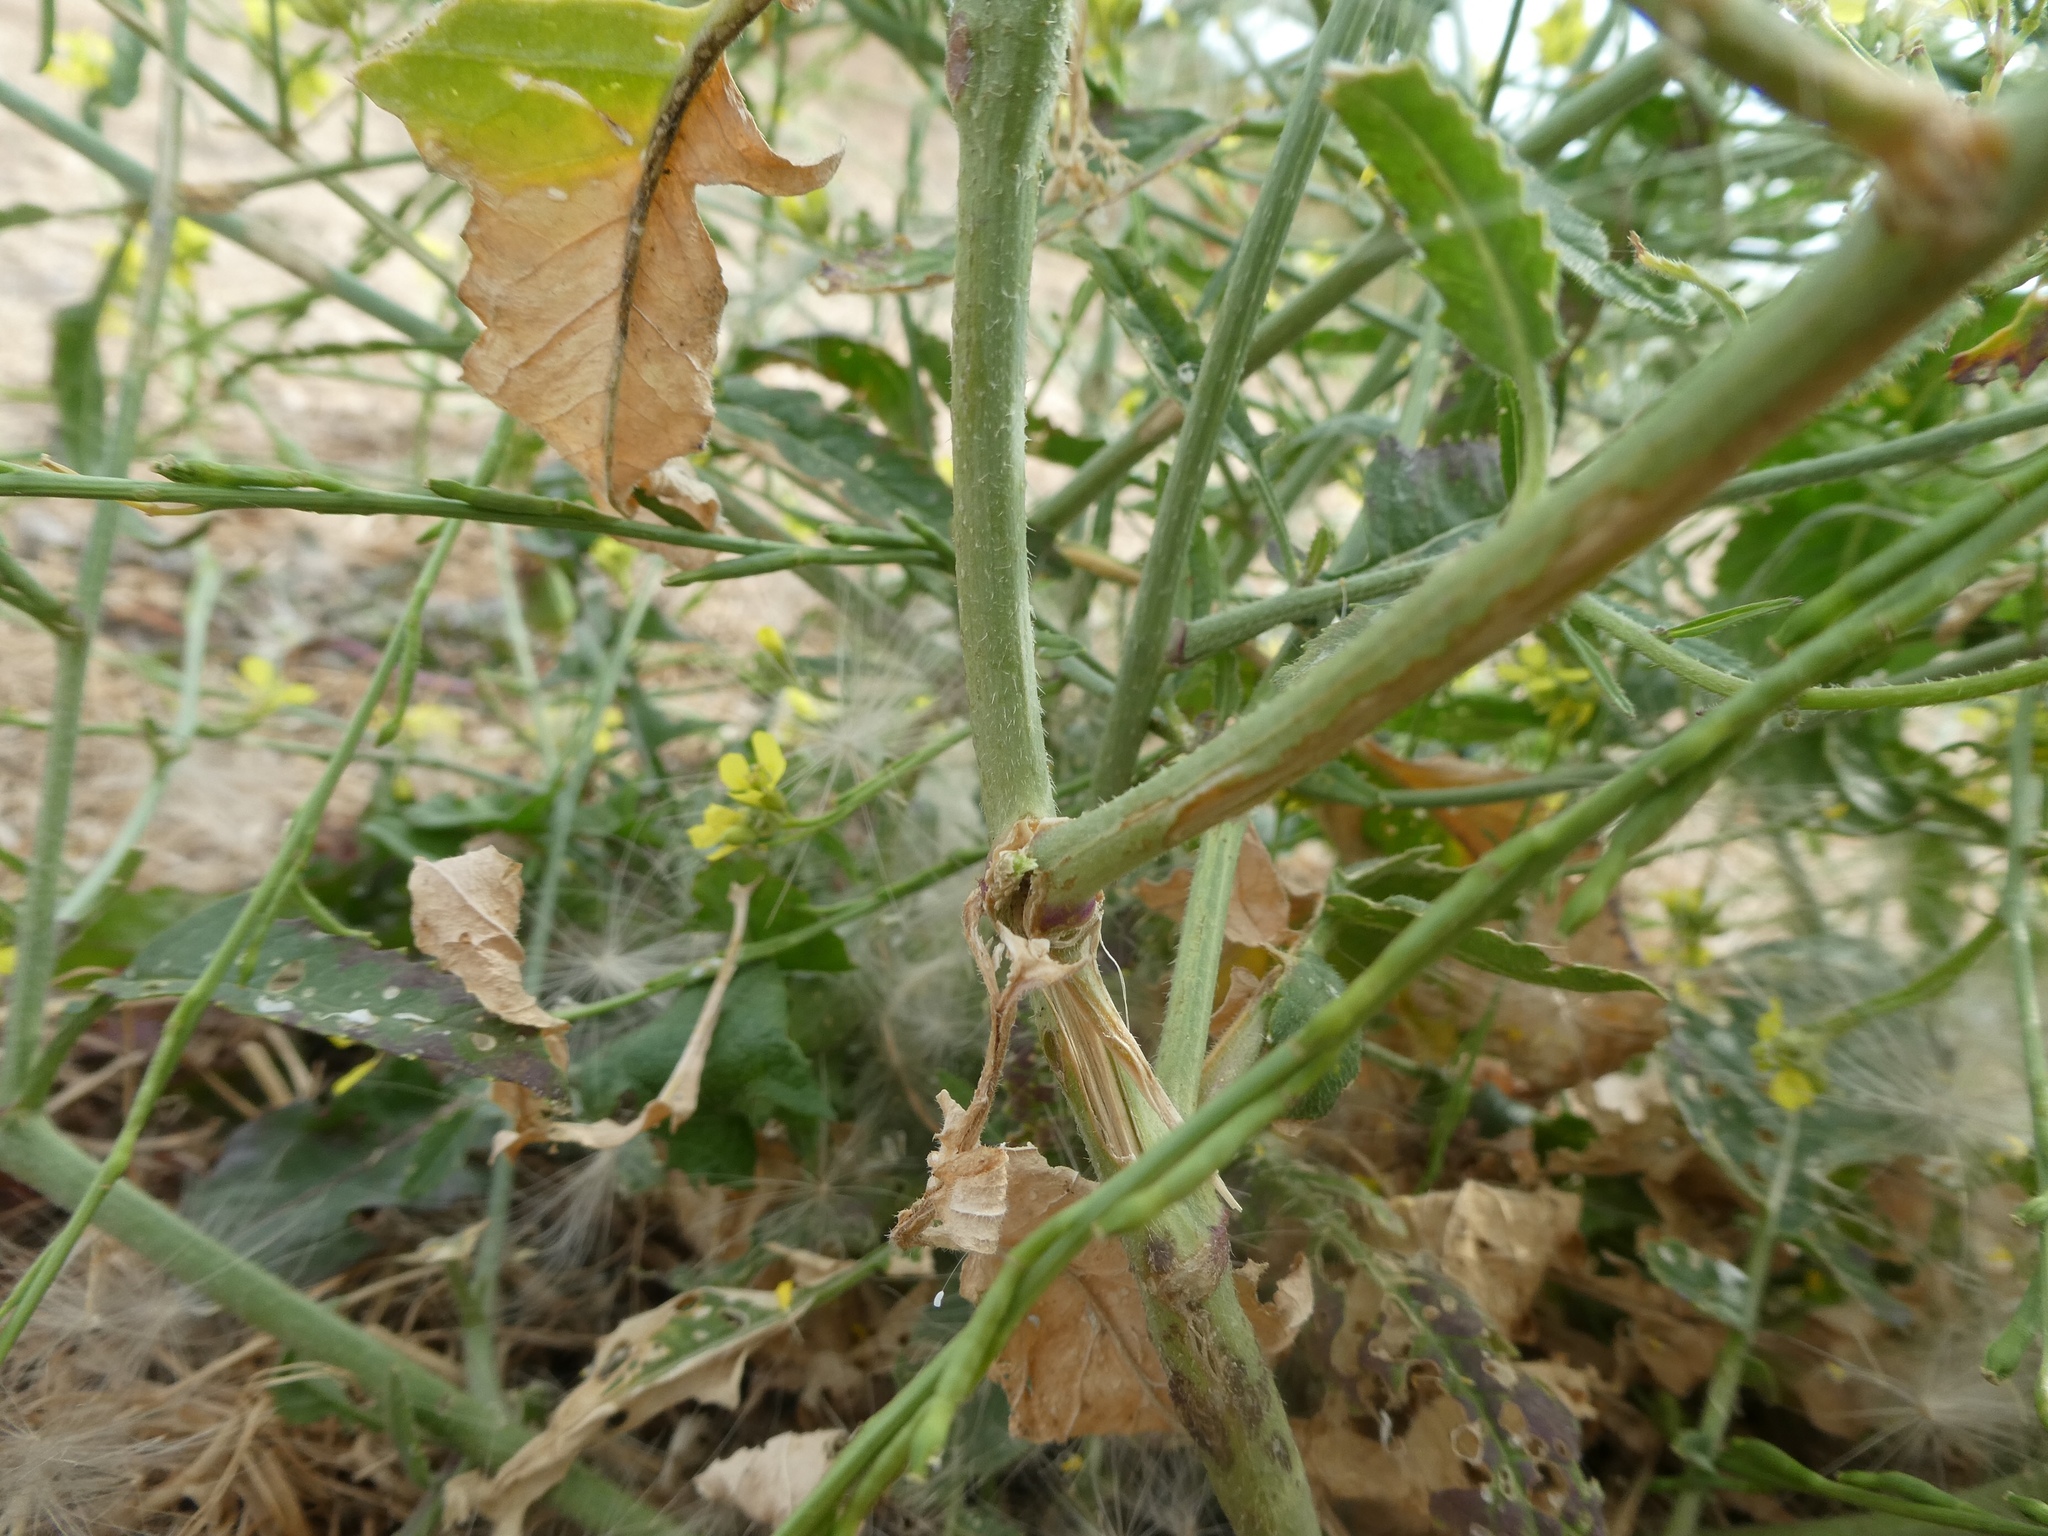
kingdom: Plantae
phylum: Tracheophyta
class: Magnoliopsida
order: Brassicales
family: Brassicaceae
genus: Hirschfeldia
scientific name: Hirschfeldia incana
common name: Hoary mustard
